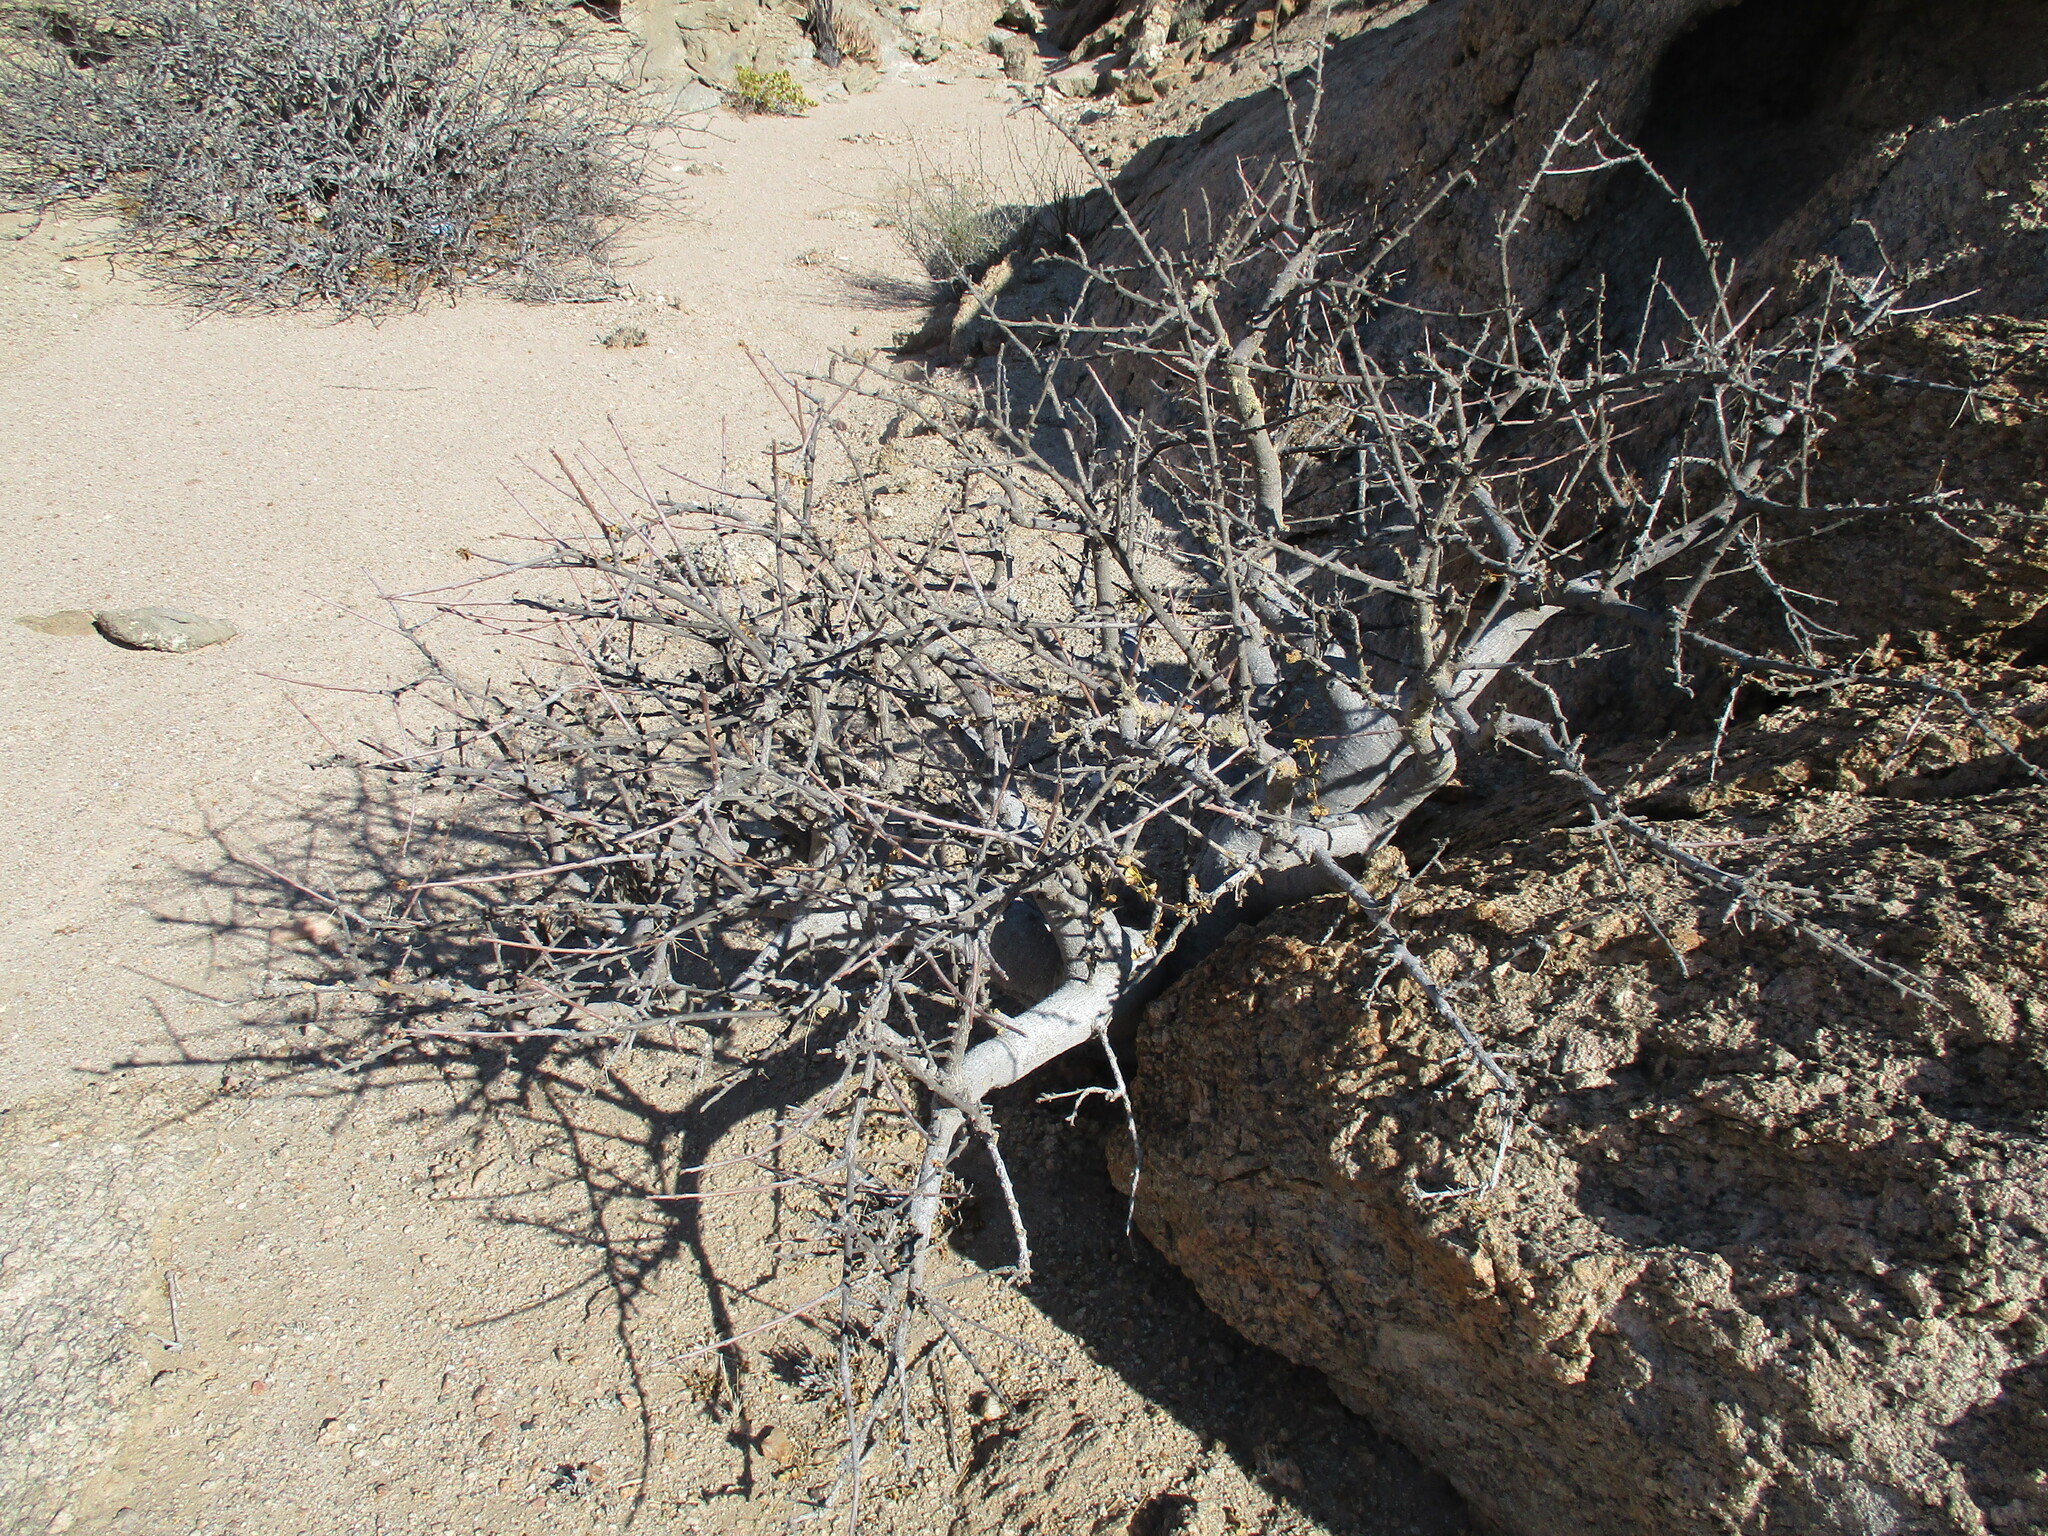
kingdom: Plantae
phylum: Tracheophyta
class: Magnoliopsida
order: Sapindales
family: Burseraceae
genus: Commiphora
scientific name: Commiphora saxicola
